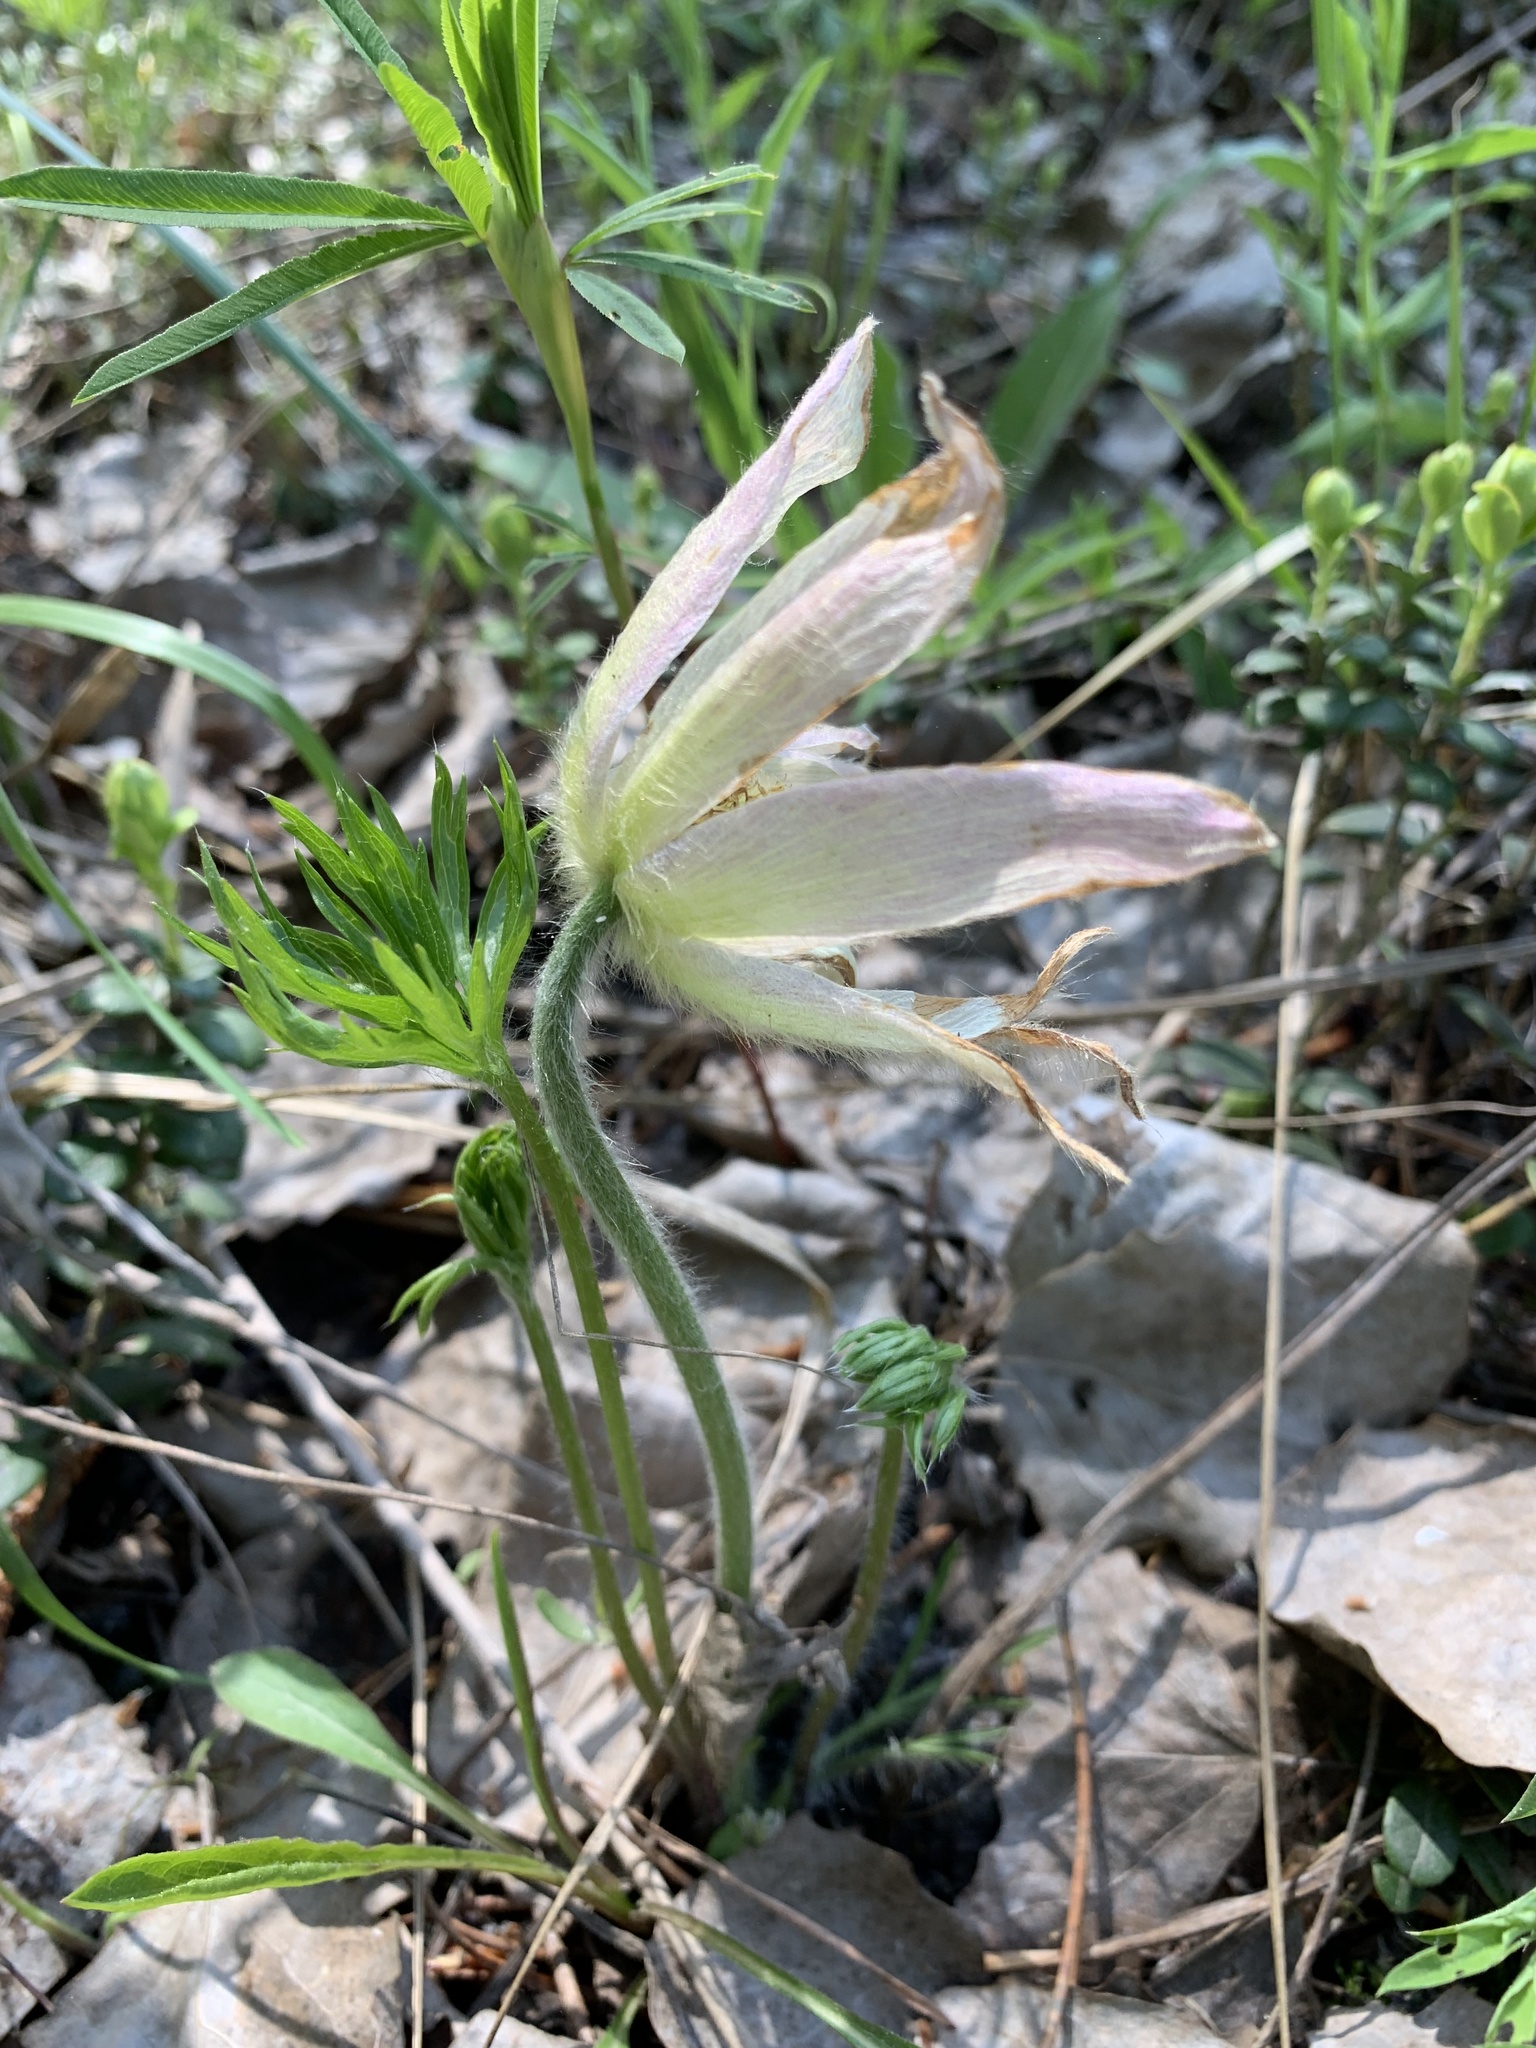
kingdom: Plantae
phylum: Tracheophyta
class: Magnoliopsida
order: Ranunculales
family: Ranunculaceae
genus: Pulsatilla
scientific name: Pulsatilla patens
